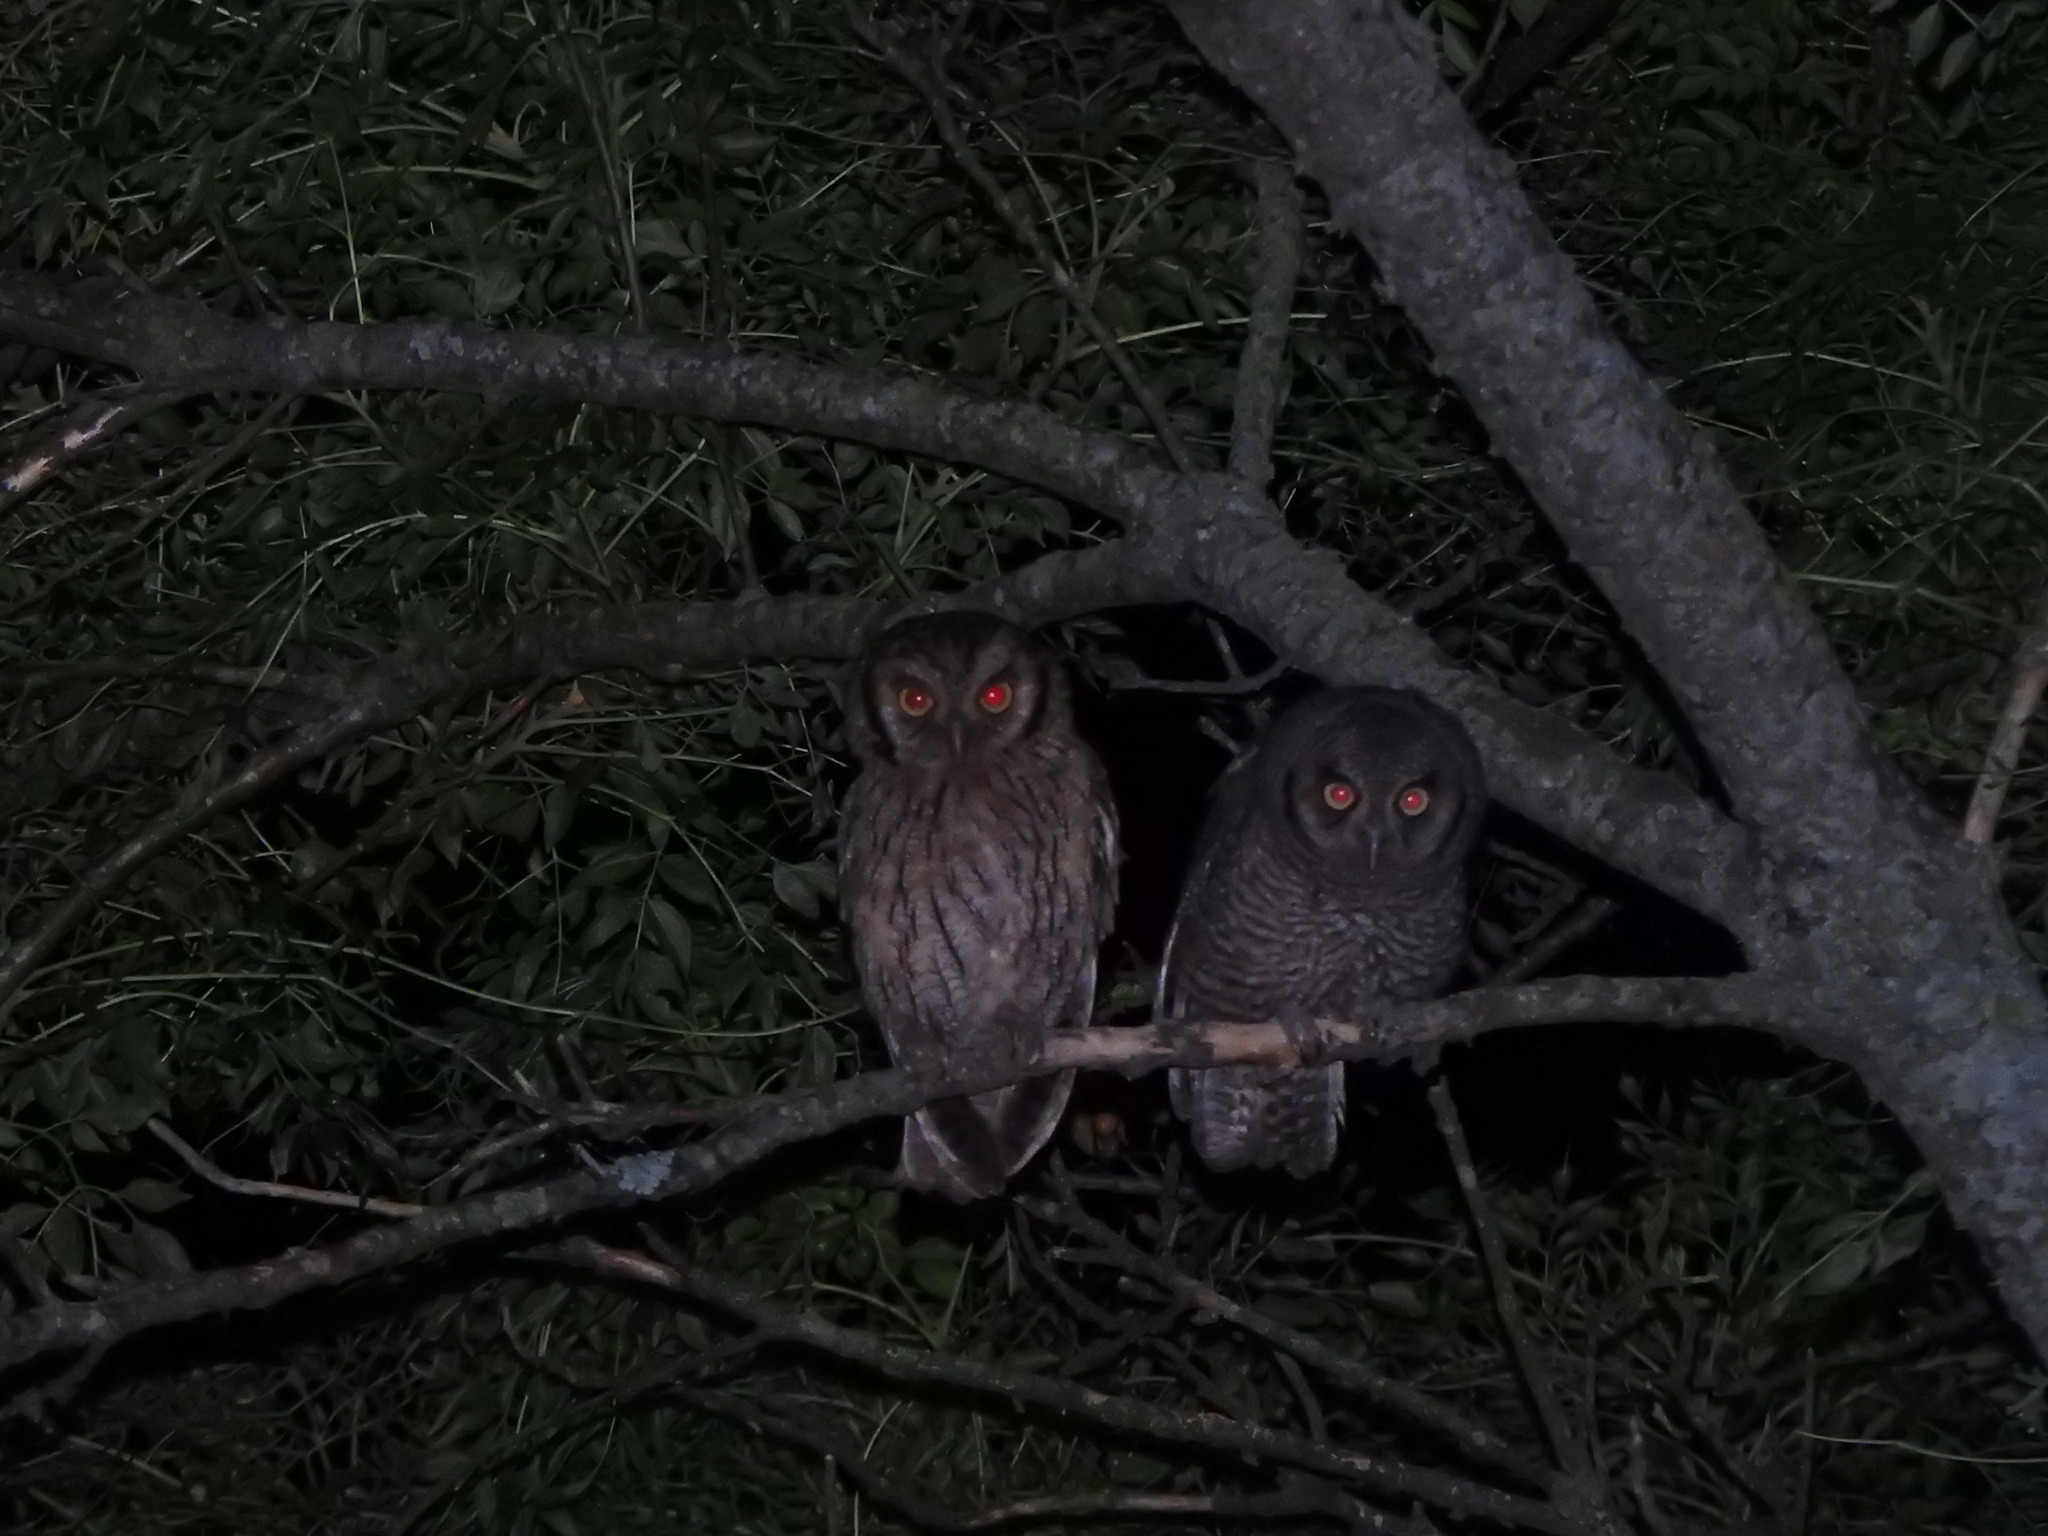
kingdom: Animalia
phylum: Chordata
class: Aves
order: Strigiformes
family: Strigidae
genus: Megascops
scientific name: Megascops choliba
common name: Tropical screech-owl
